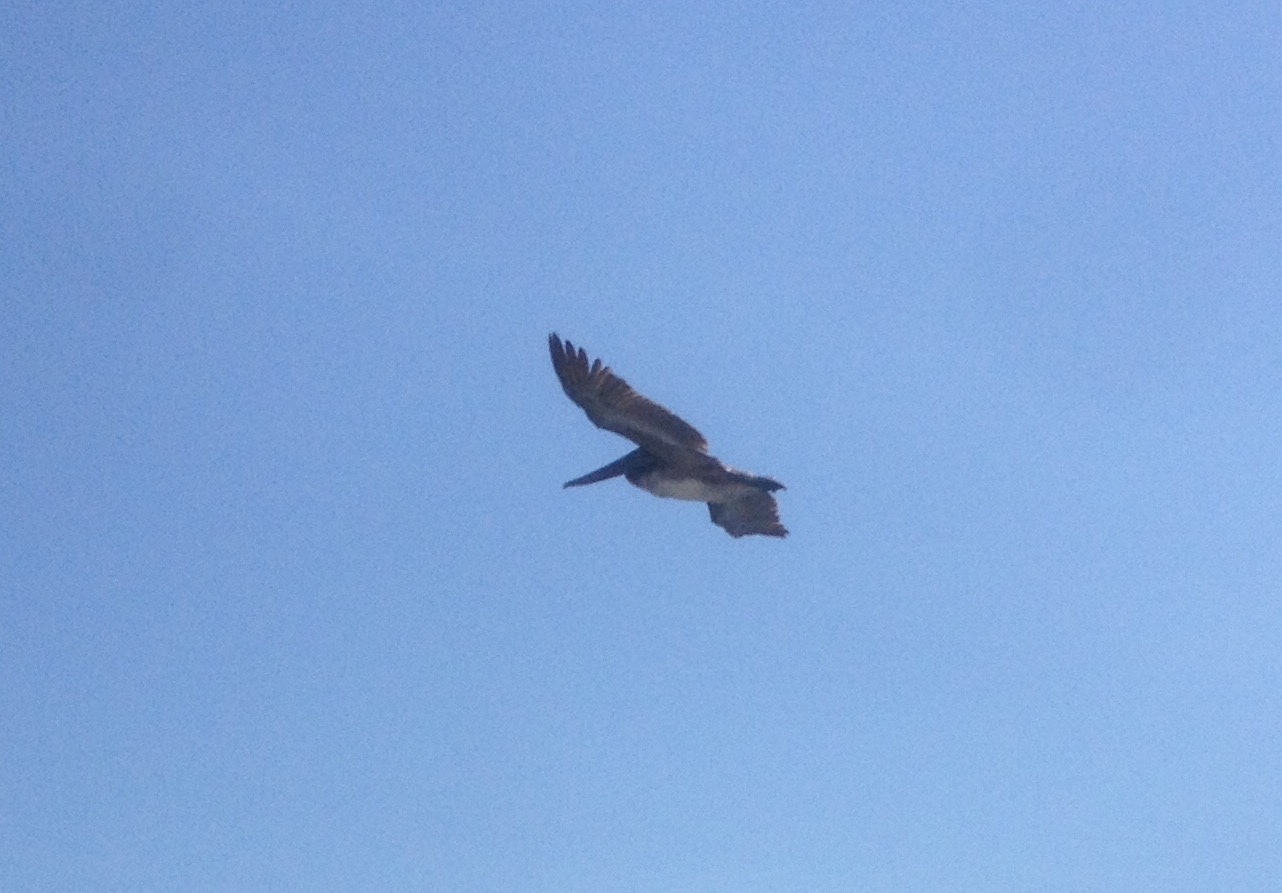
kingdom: Animalia
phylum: Chordata
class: Aves
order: Pelecaniformes
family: Pelecanidae
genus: Pelecanus
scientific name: Pelecanus occidentalis
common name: Brown pelican
